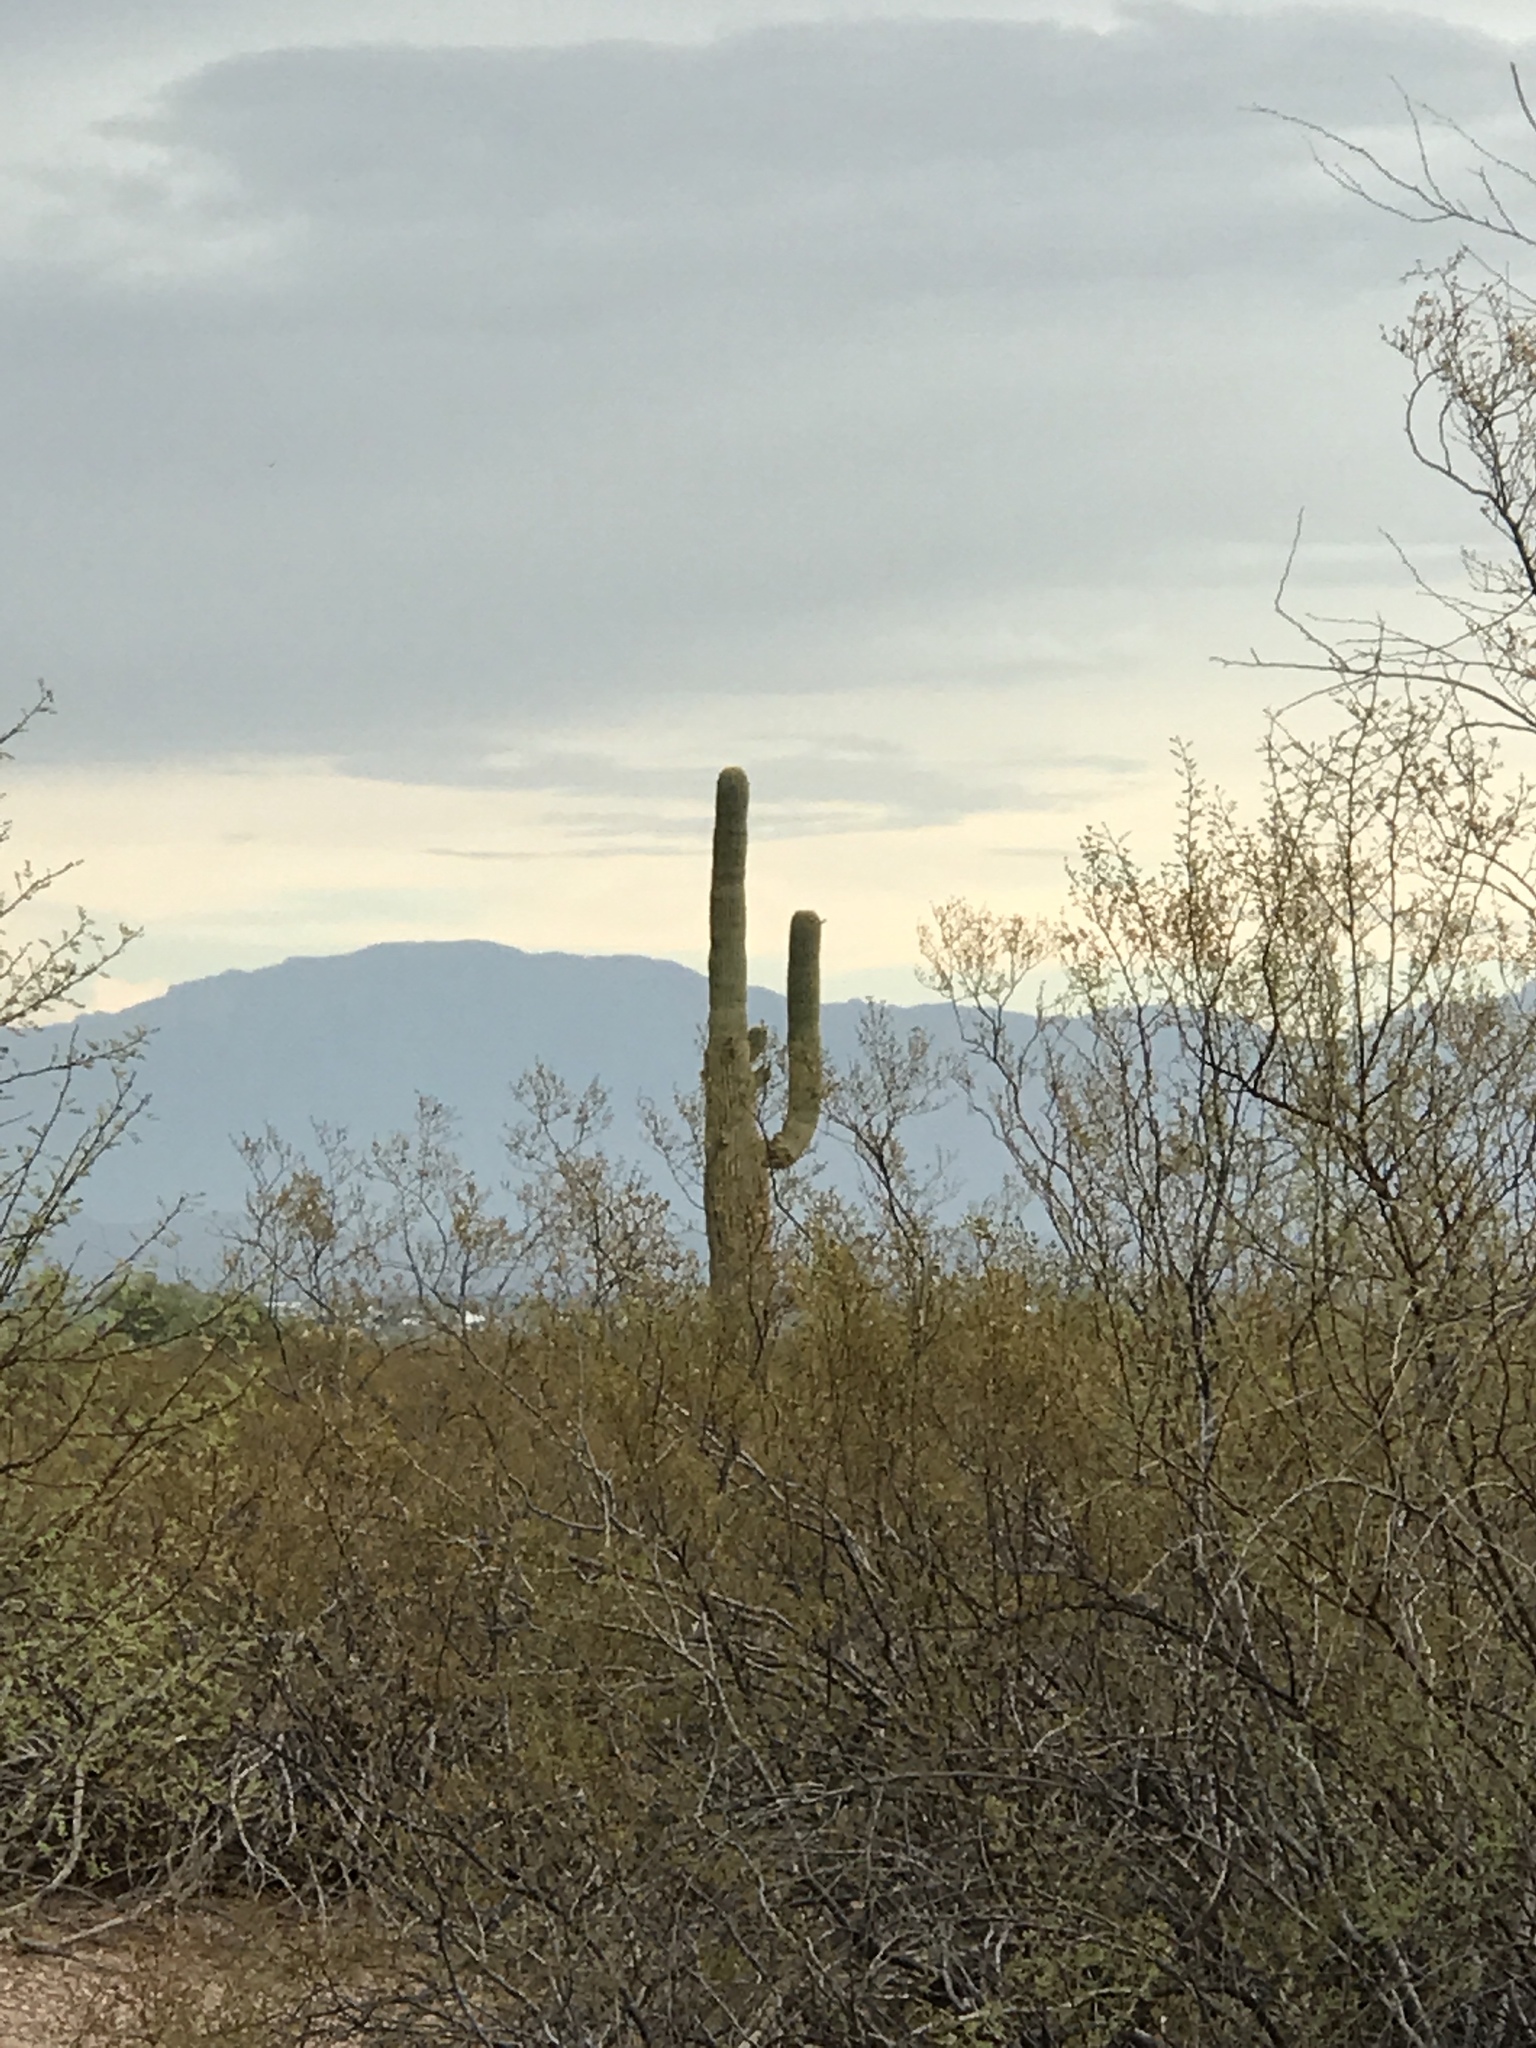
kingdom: Plantae
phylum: Tracheophyta
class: Magnoliopsida
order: Caryophyllales
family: Cactaceae
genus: Carnegiea
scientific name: Carnegiea gigantea
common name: Saguaro
